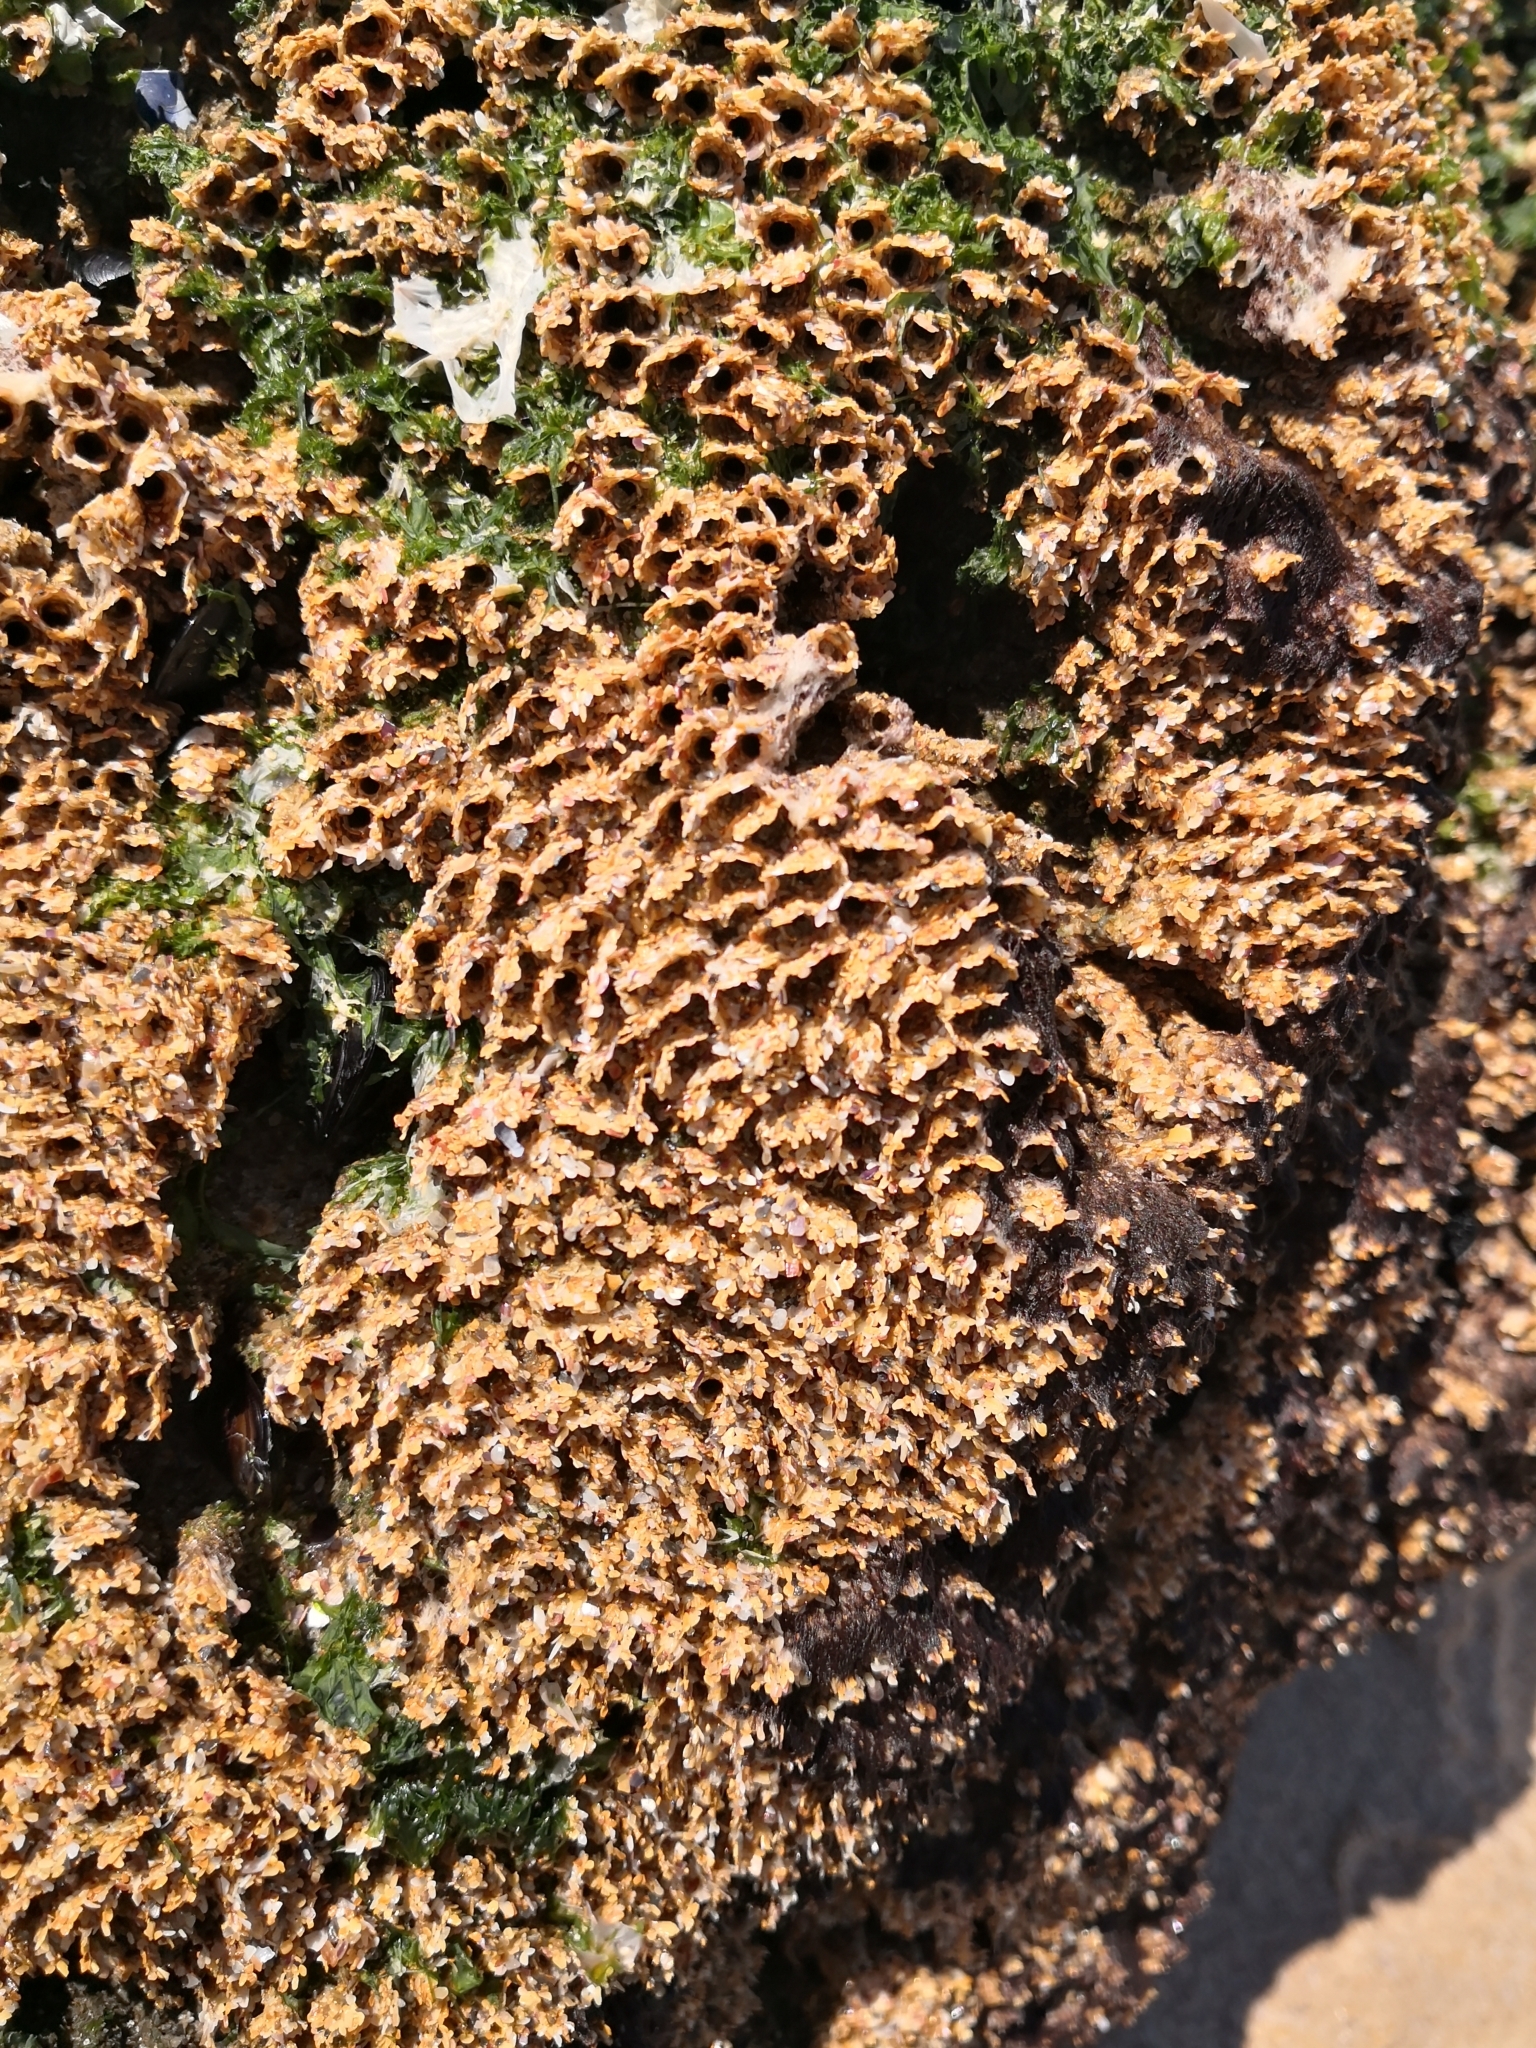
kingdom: Animalia
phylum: Annelida
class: Polychaeta
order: Sabellida
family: Sabellariidae
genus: Sabellaria
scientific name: Sabellaria alveolata
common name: Honeycomb worm
